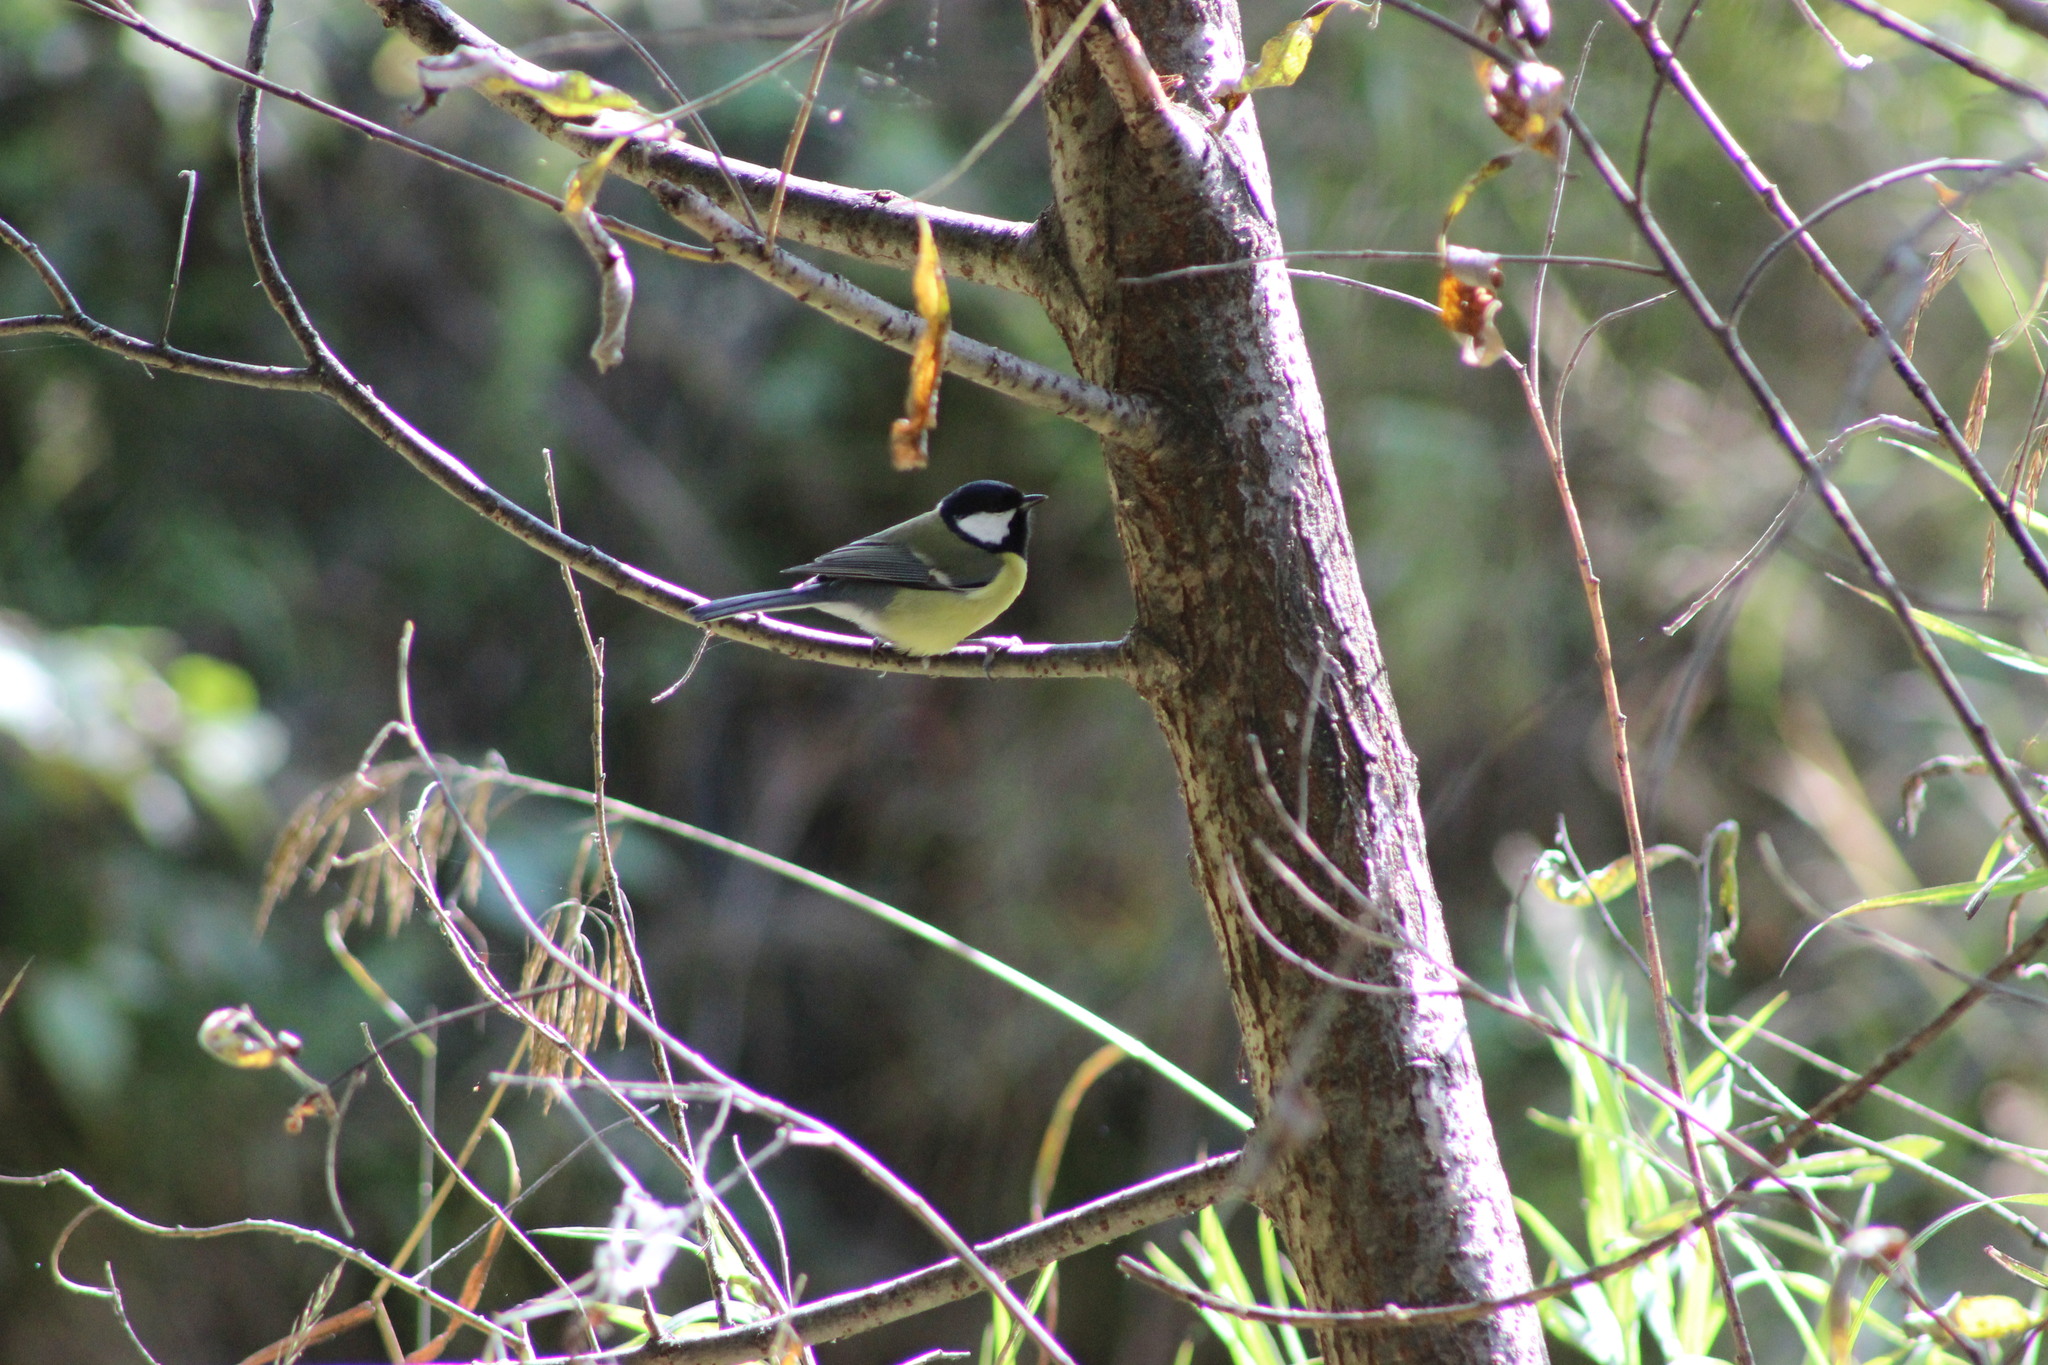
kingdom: Animalia
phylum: Chordata
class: Aves
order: Passeriformes
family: Paridae
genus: Parus
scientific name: Parus major
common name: Great tit
